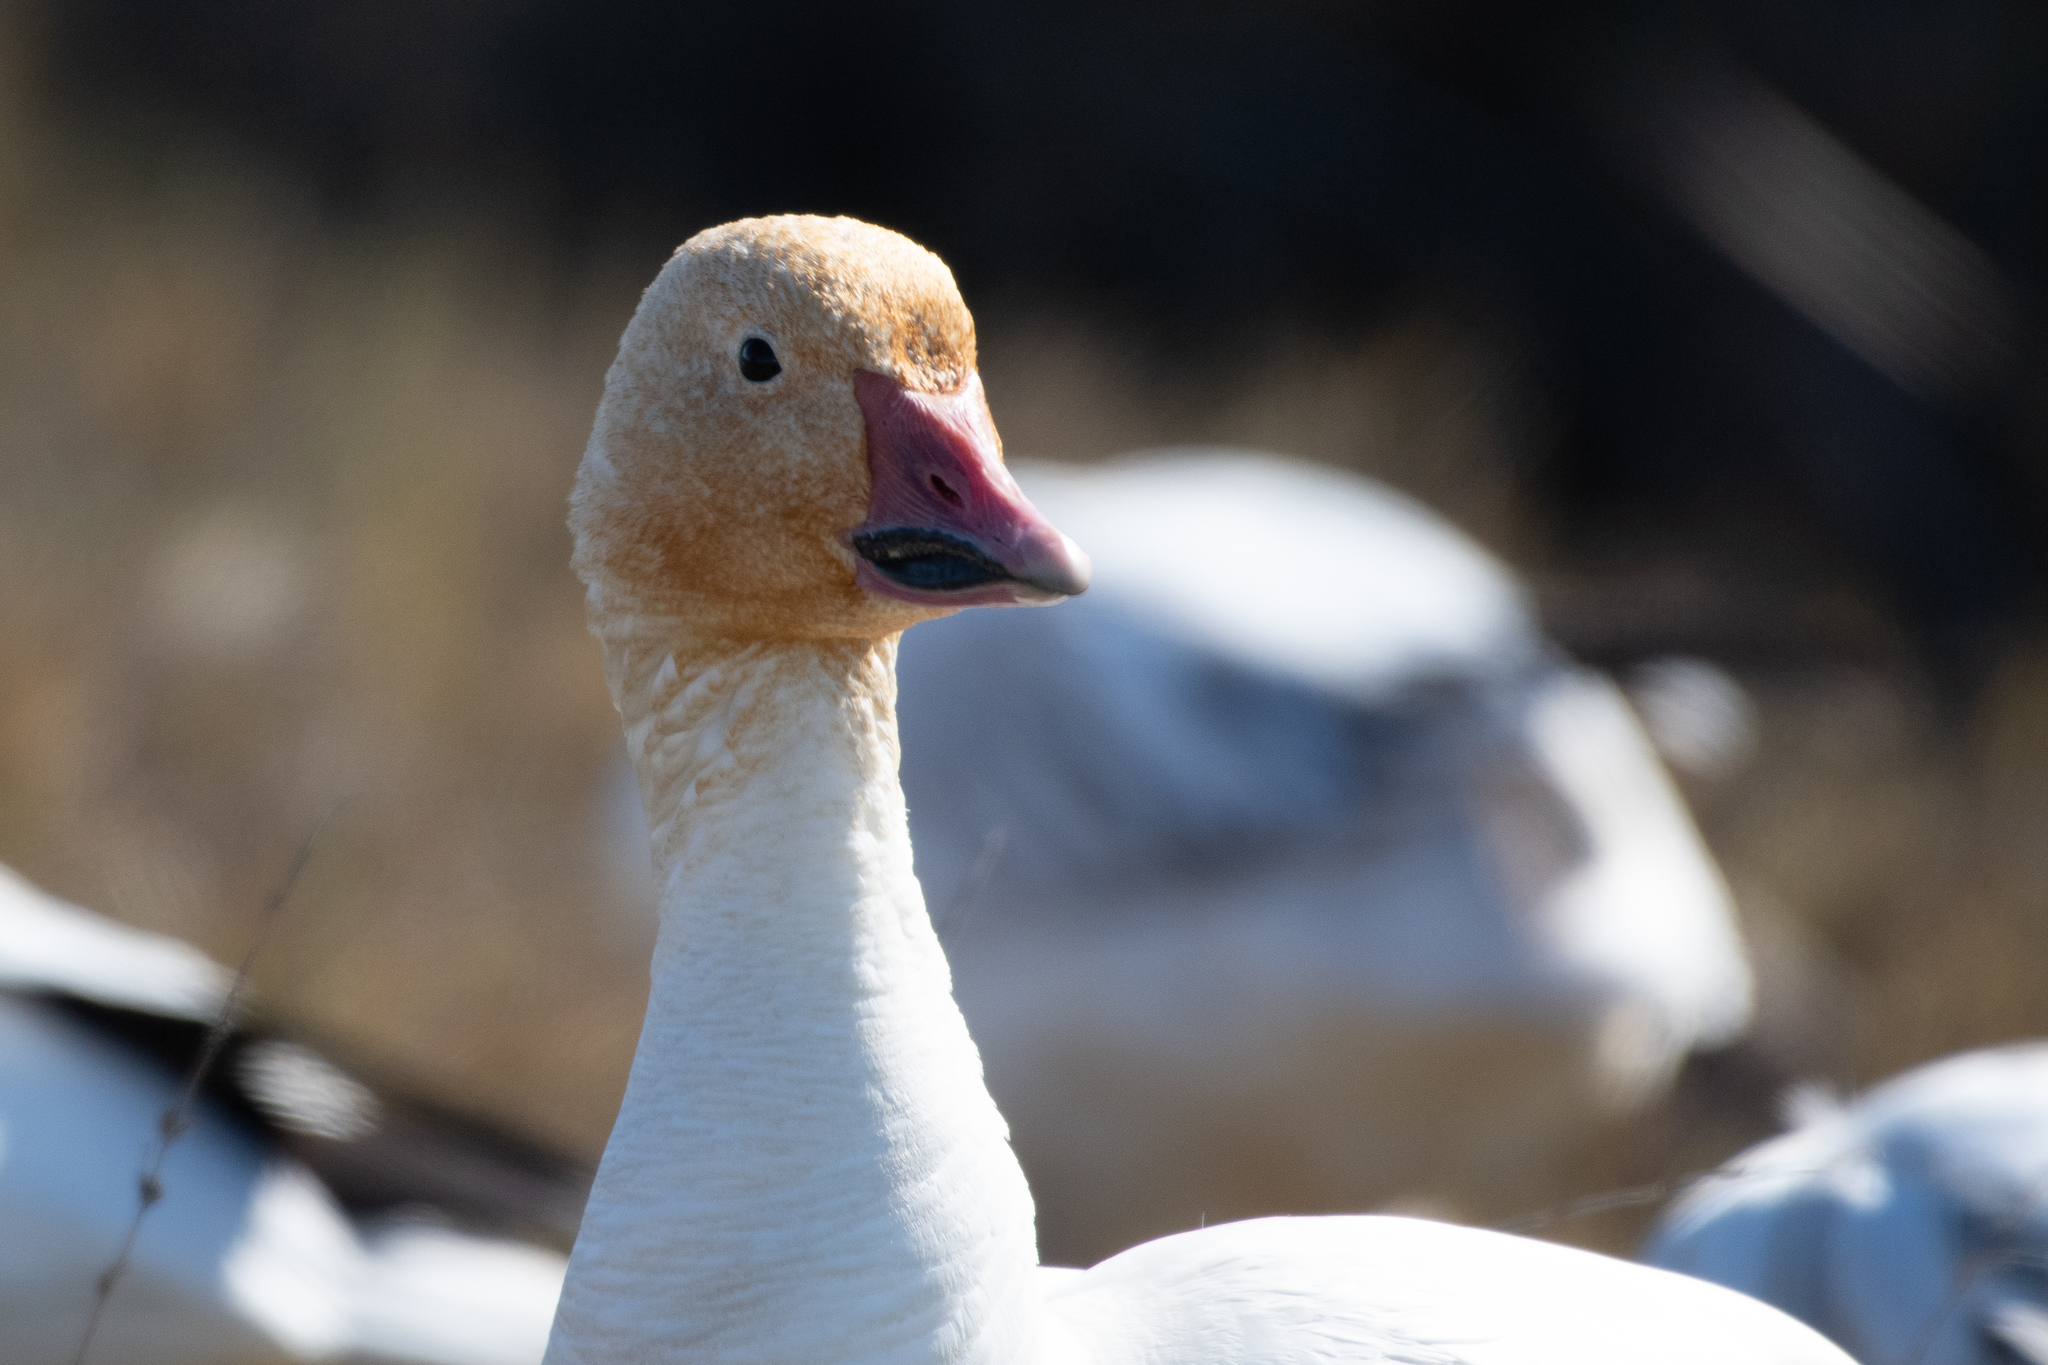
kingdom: Animalia
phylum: Chordata
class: Aves
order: Anseriformes
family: Anatidae
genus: Anser
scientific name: Anser caerulescens
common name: Snow goose
